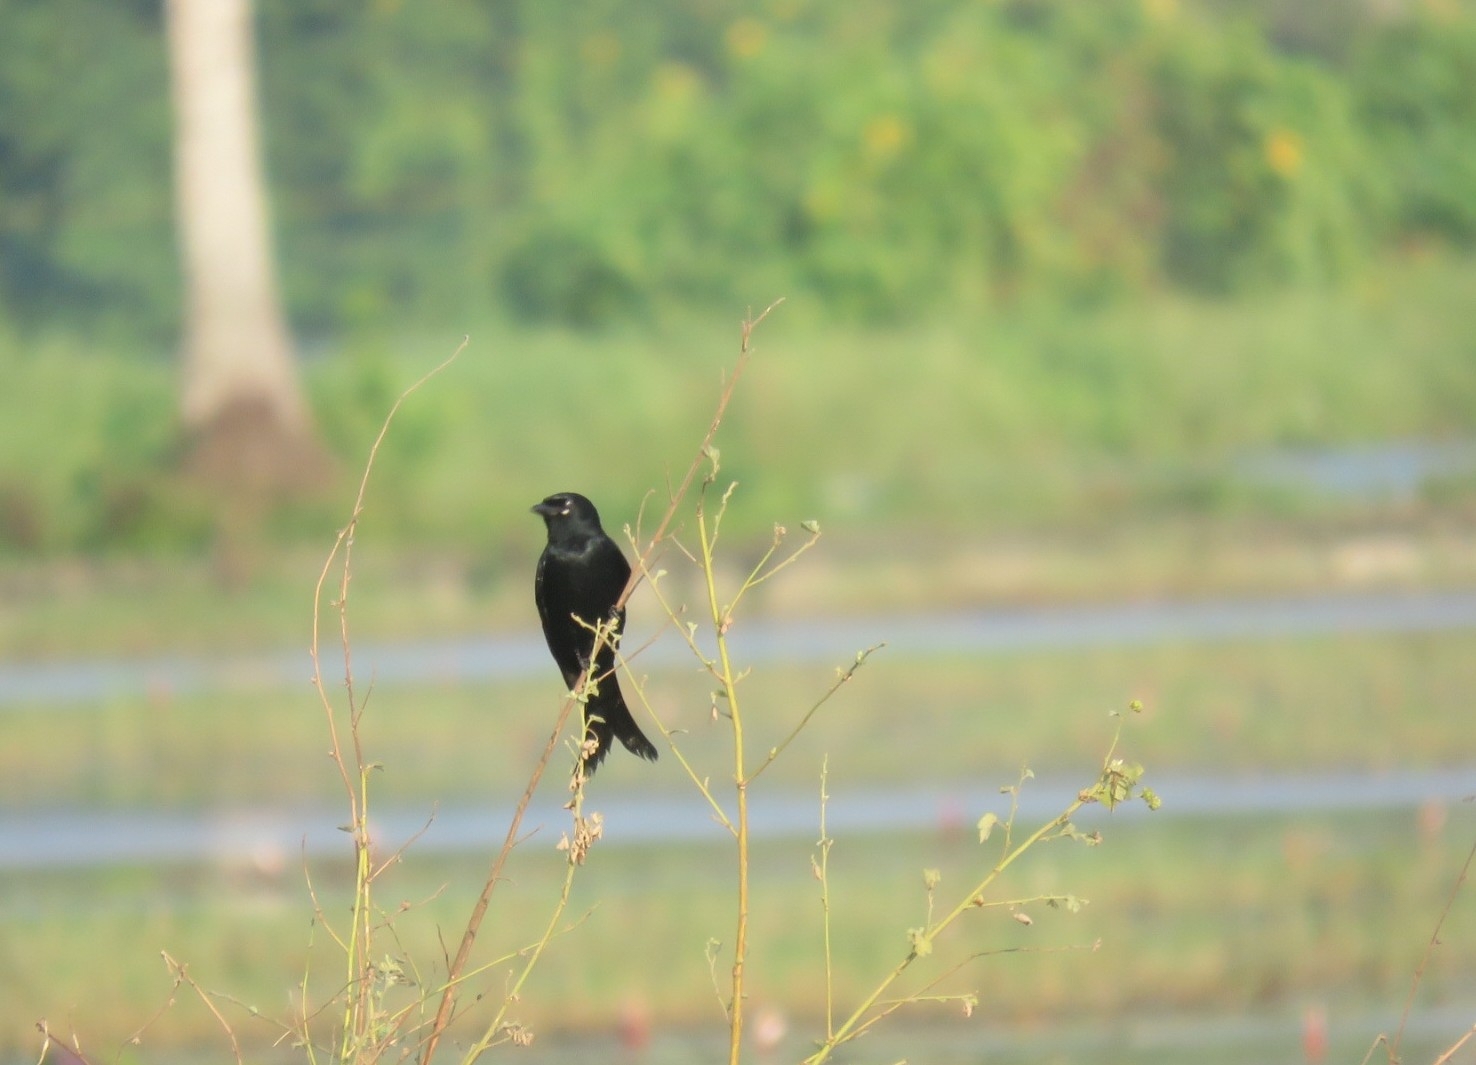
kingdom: Animalia
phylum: Chordata
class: Aves
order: Passeriformes
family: Dicruridae
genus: Dicrurus
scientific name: Dicrurus macrocercus
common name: Black drongo
